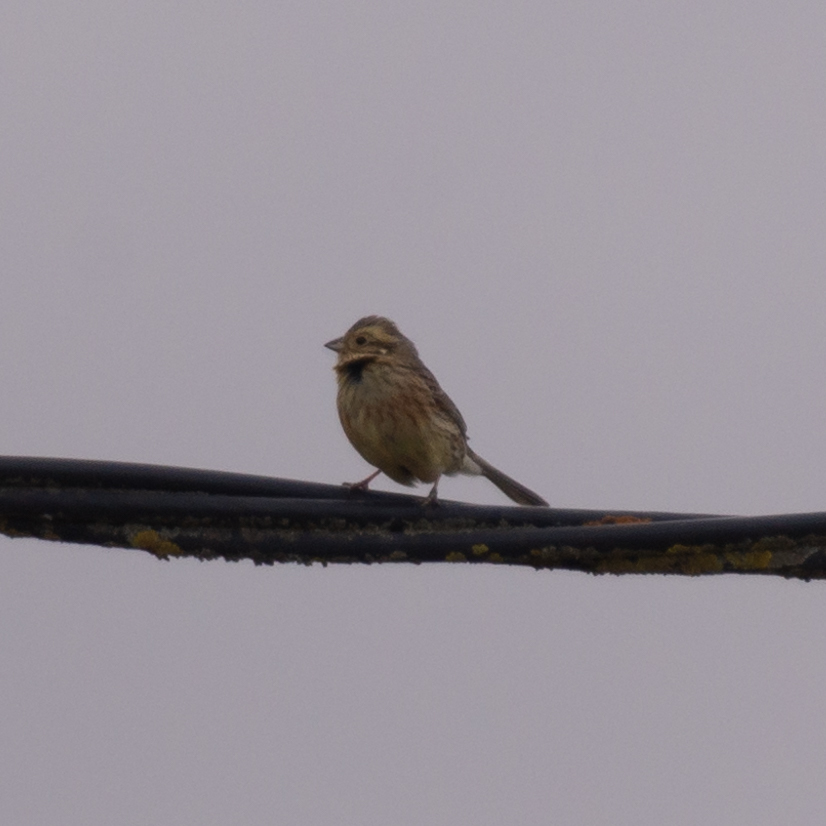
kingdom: Animalia
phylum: Chordata
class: Aves
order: Passeriformes
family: Emberizidae
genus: Emberiza
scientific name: Emberiza cirlus
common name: Cirl bunting
